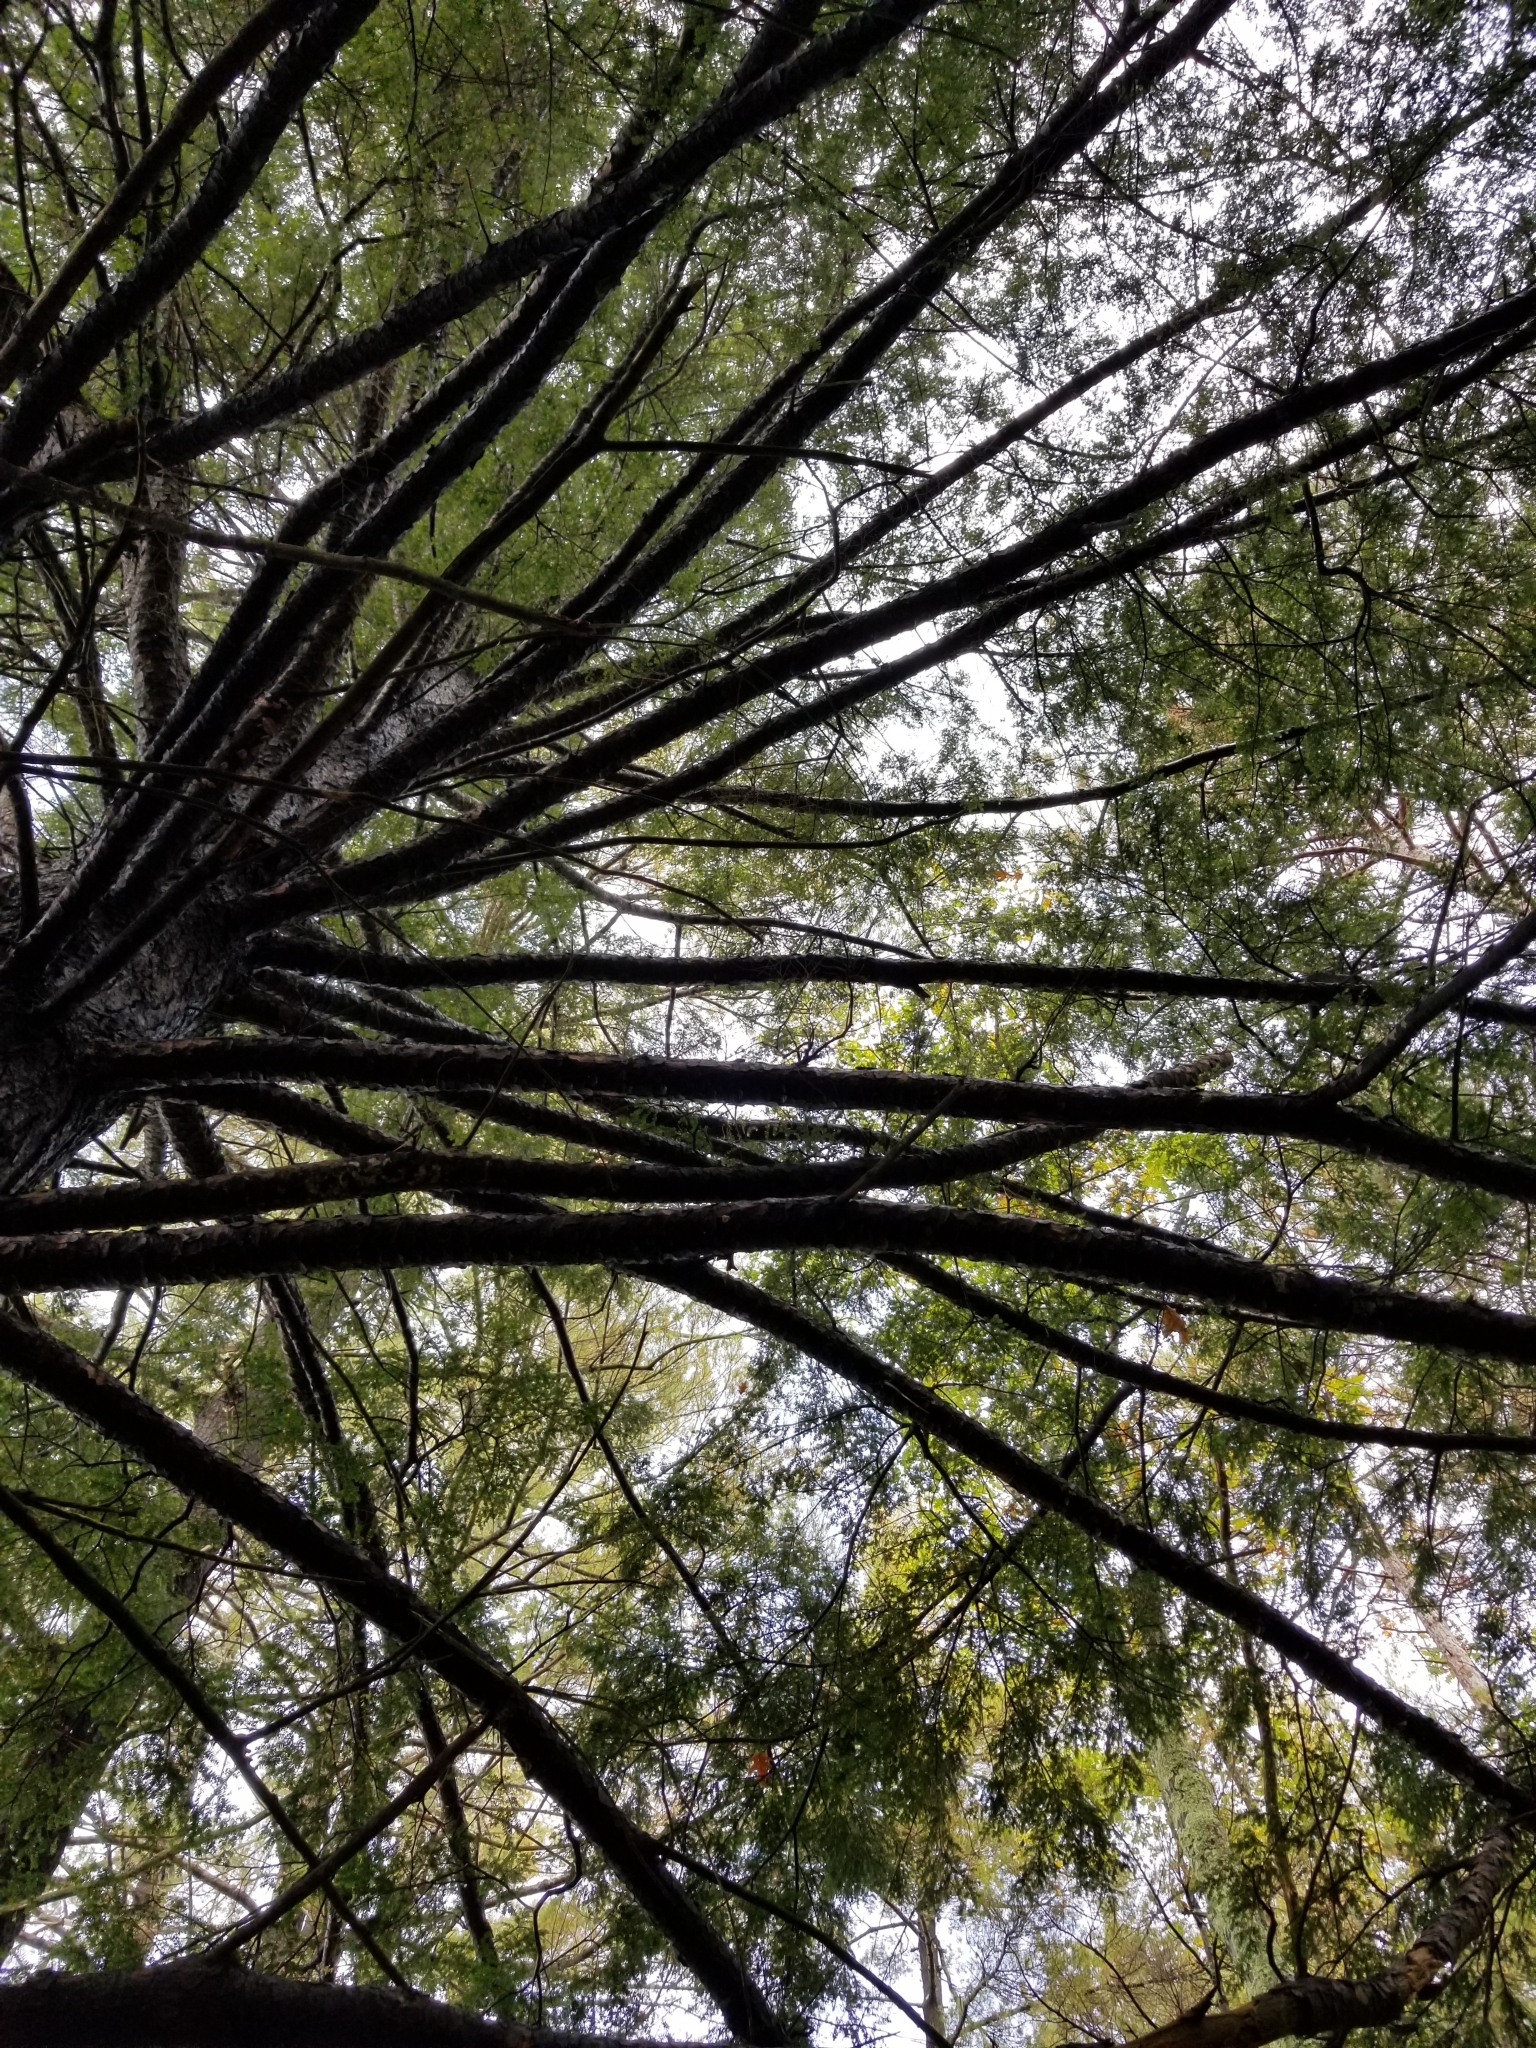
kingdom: Plantae
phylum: Tracheophyta
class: Pinopsida
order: Pinales
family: Pinaceae
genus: Tsuga
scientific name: Tsuga canadensis
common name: Eastern hemlock
